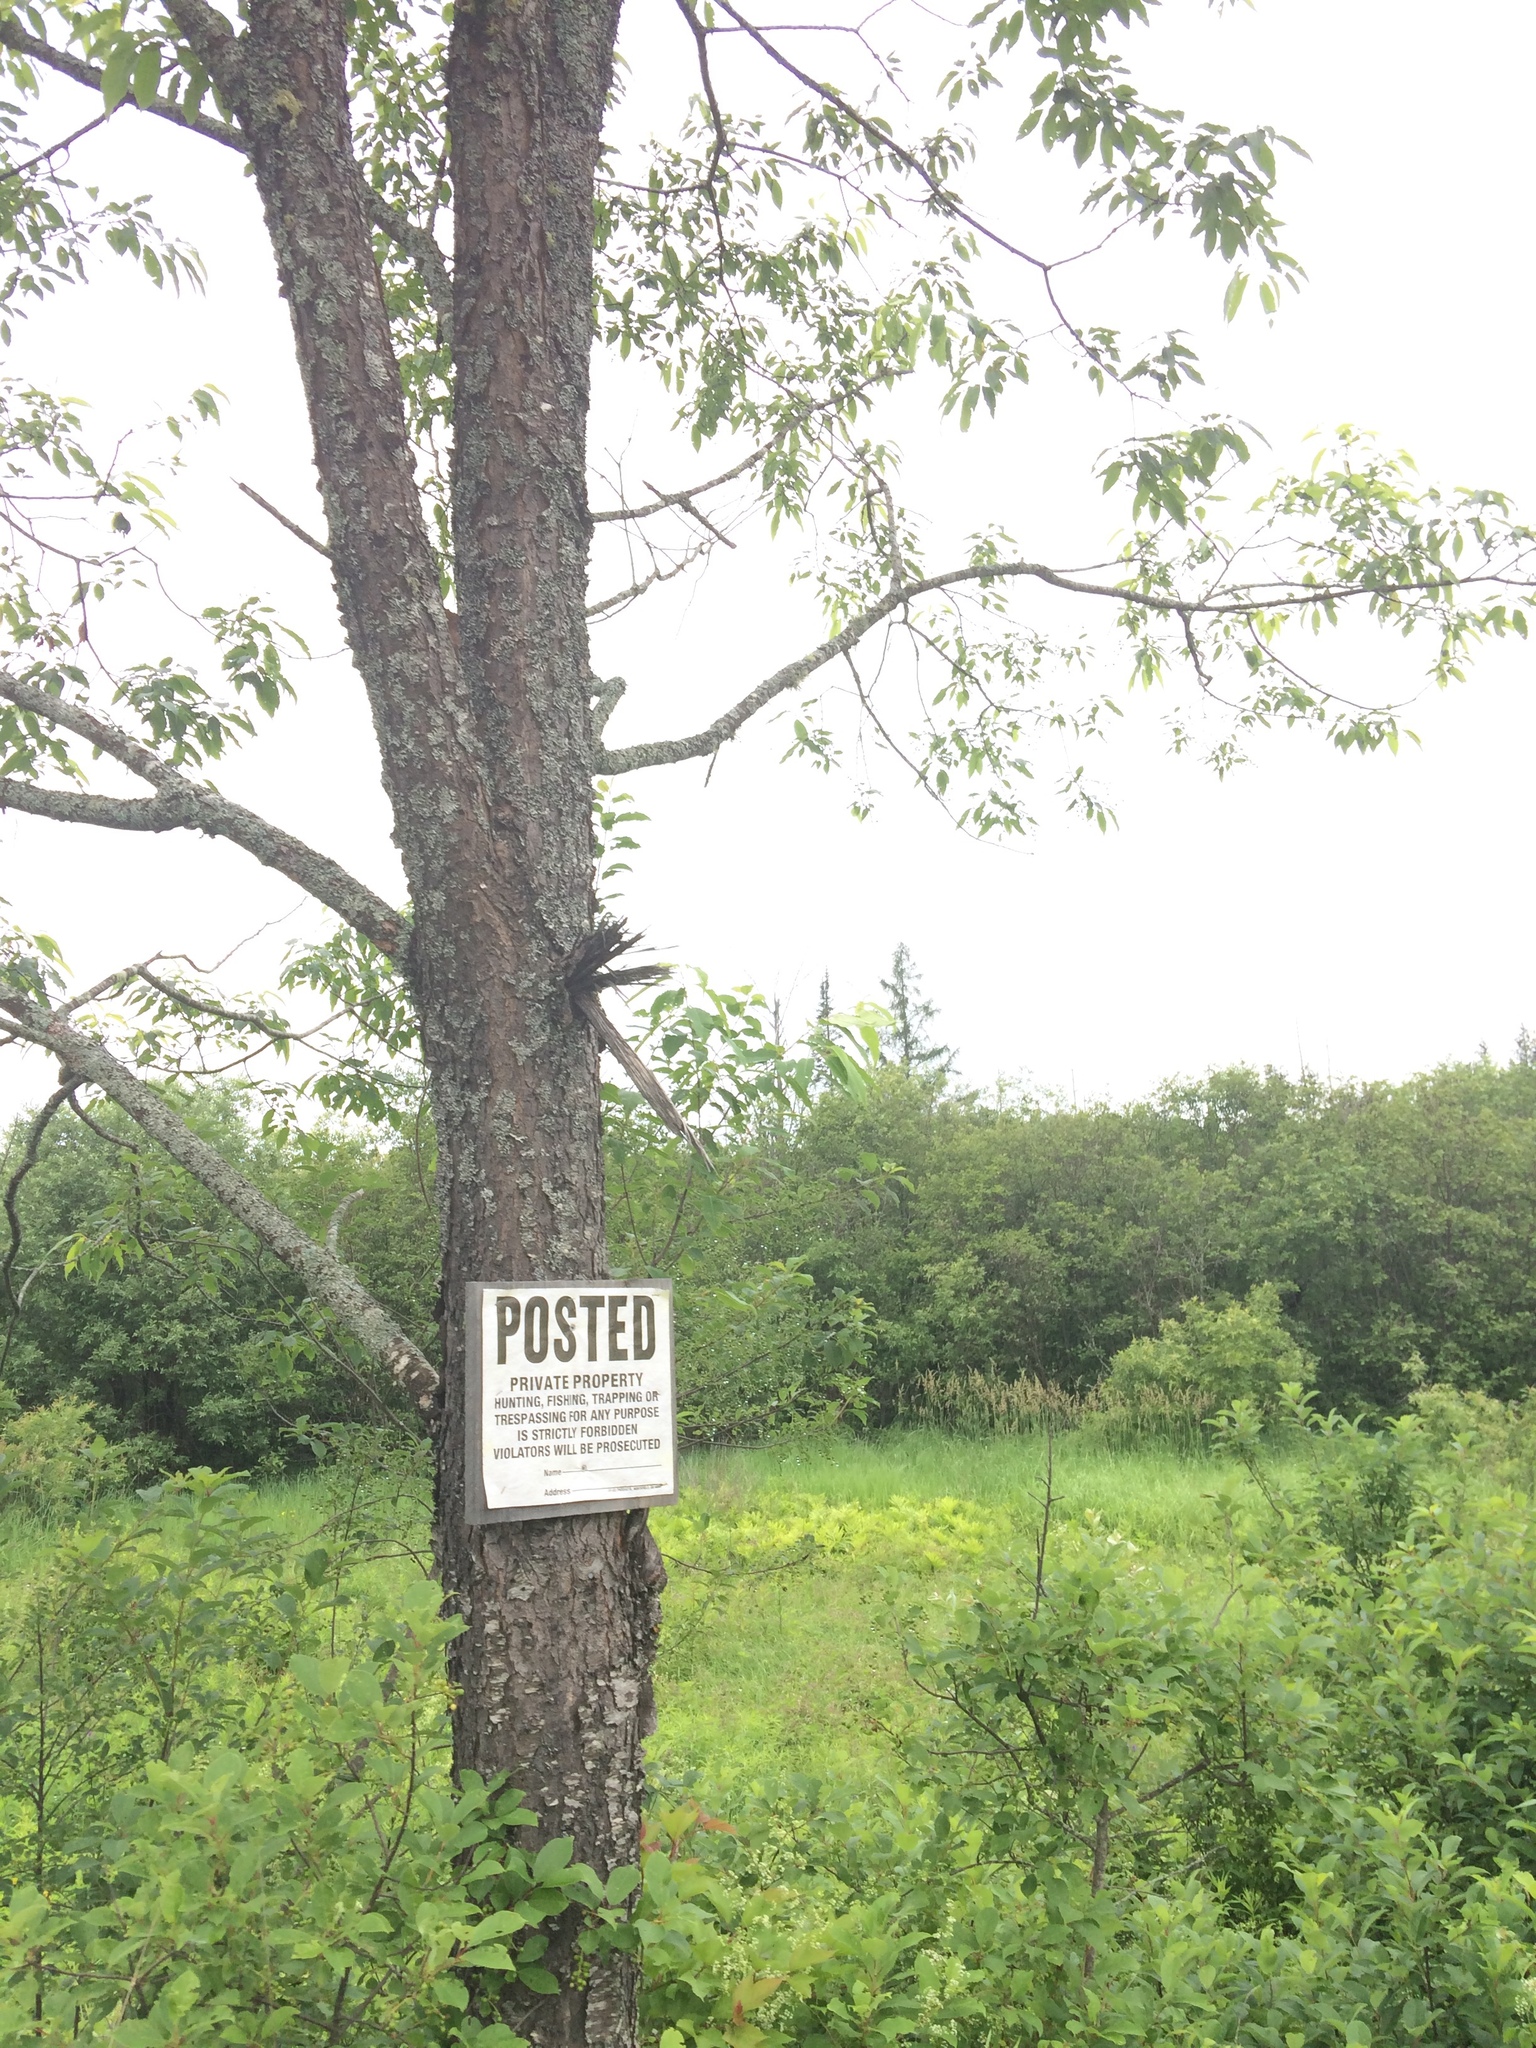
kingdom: Plantae
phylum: Tracheophyta
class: Magnoliopsida
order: Rosales
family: Rosaceae
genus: Prunus
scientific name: Prunus serotina
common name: Black cherry
